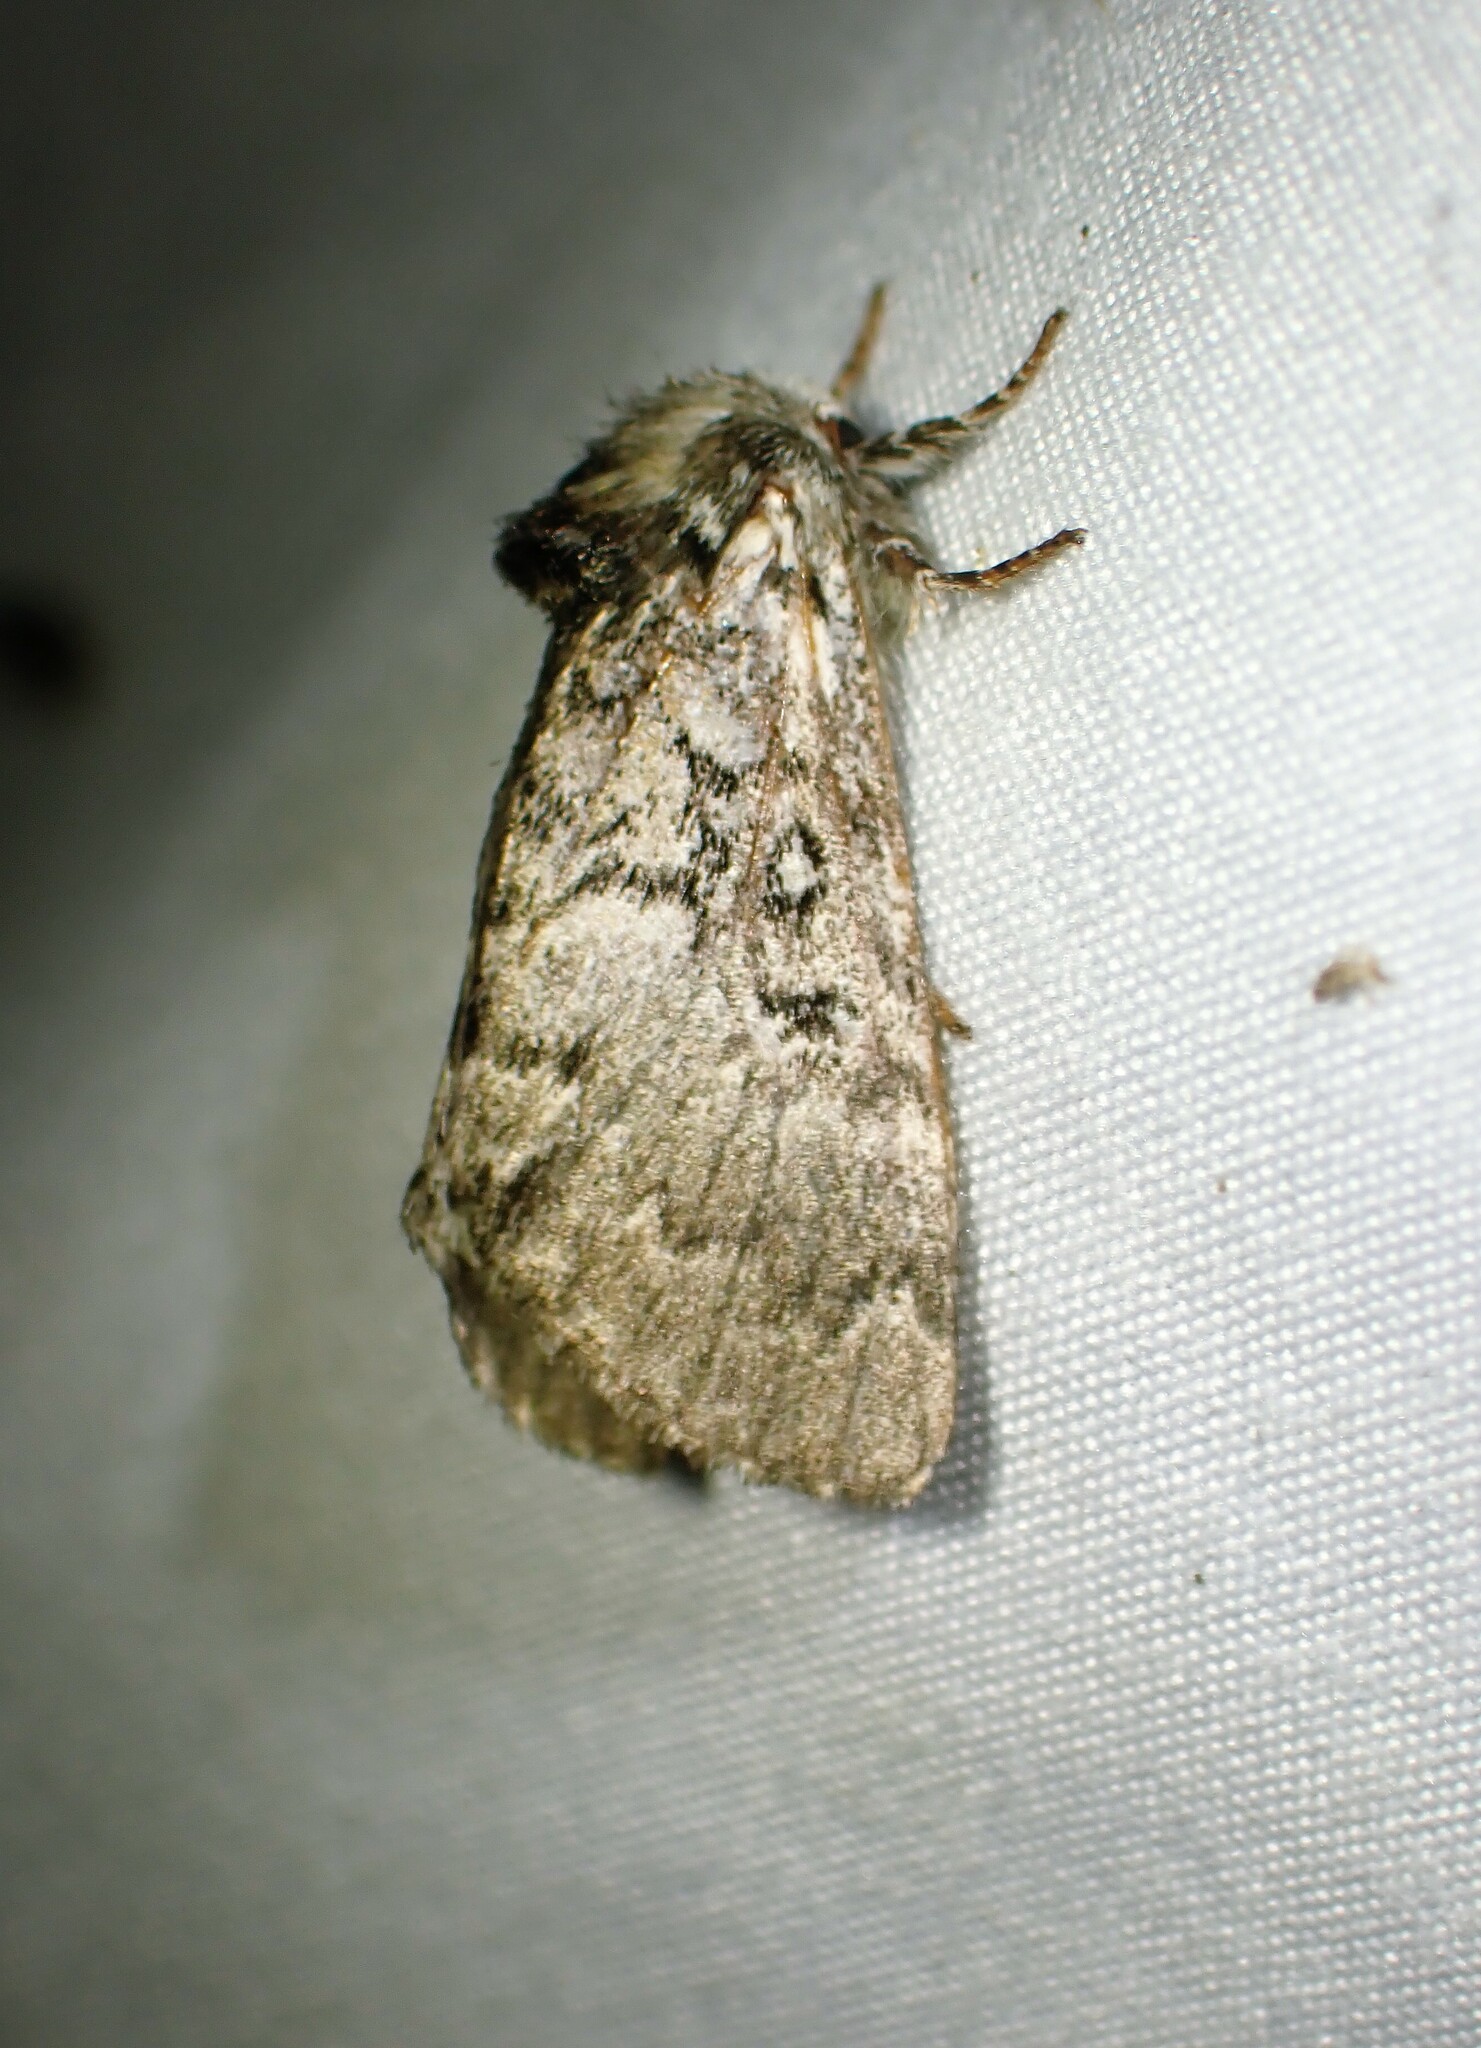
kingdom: Animalia
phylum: Arthropoda
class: Insecta
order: Lepidoptera
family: Noctuidae
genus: Colocasia
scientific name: Colocasia propinquilinea
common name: Close-banded demas
